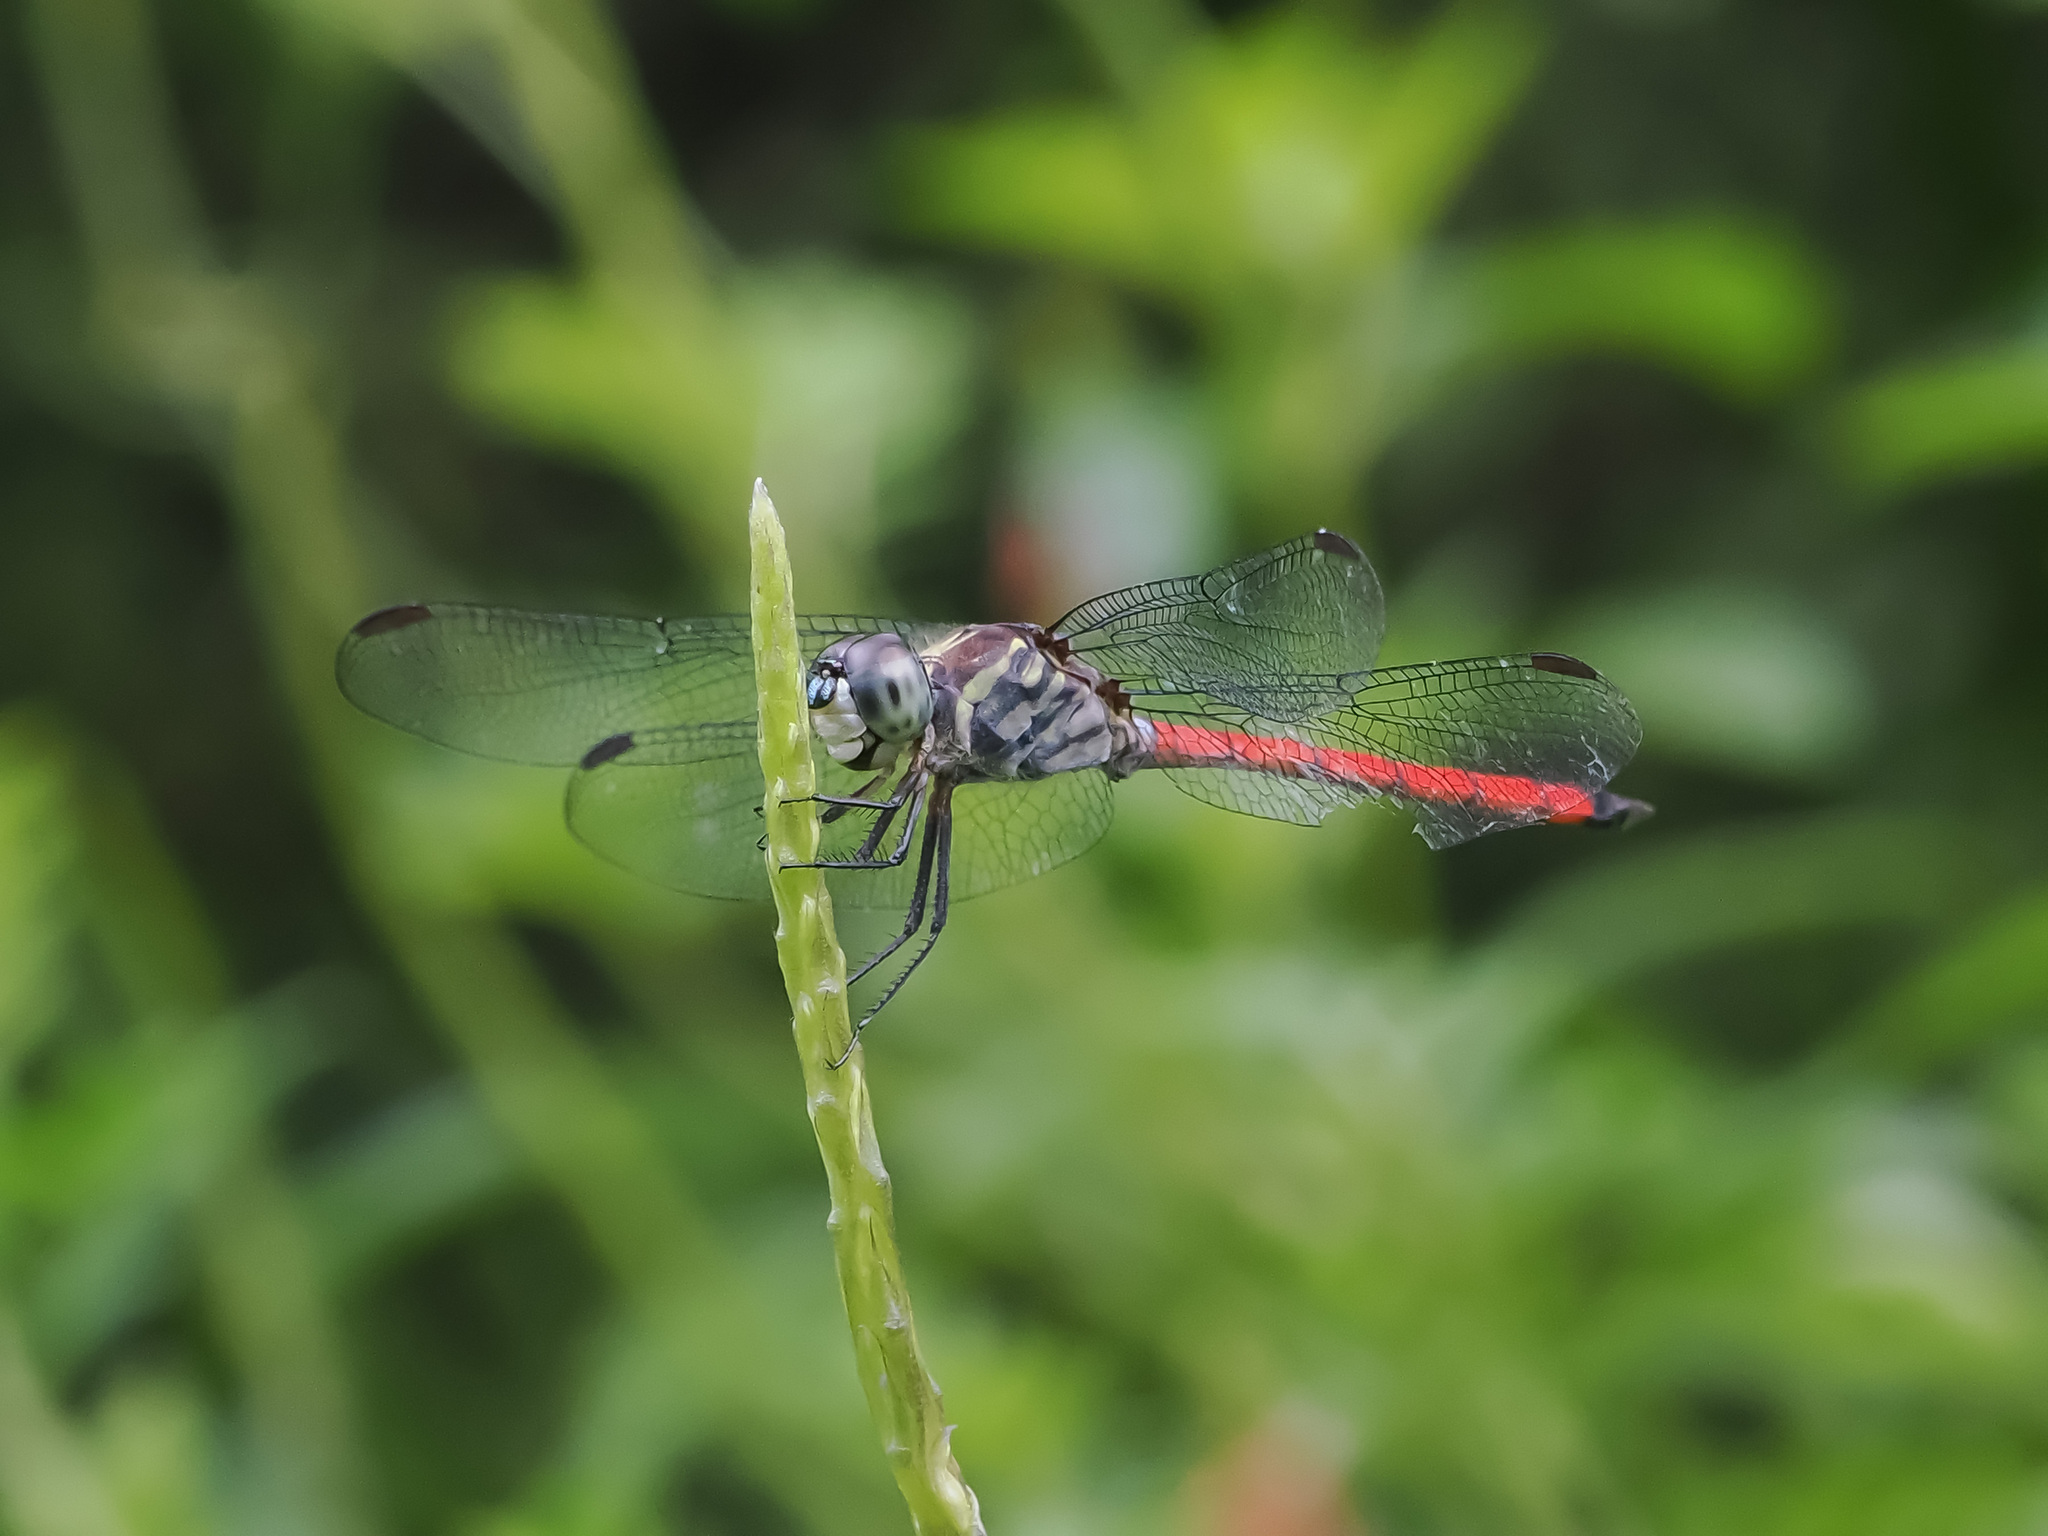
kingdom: Animalia
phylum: Arthropoda
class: Insecta
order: Odonata
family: Libellulidae
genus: Lathrecista
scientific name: Lathrecista asiatica
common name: Scarlet grenadier
